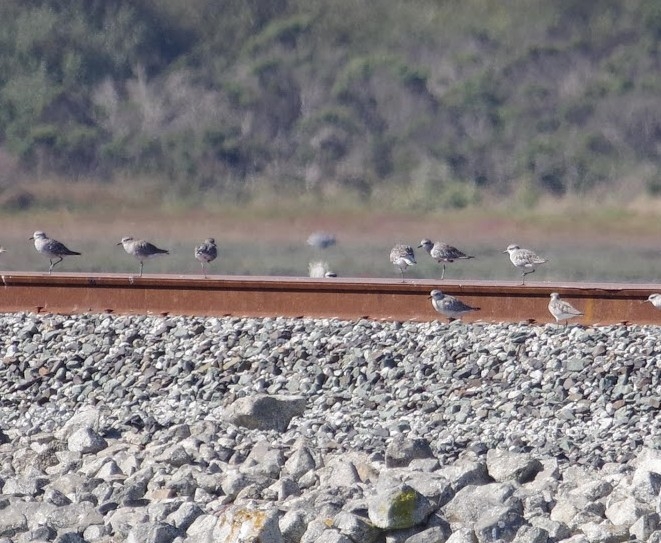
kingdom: Animalia
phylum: Chordata
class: Aves
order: Charadriiformes
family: Charadriidae
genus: Pluvialis
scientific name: Pluvialis squatarola
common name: Grey plover
